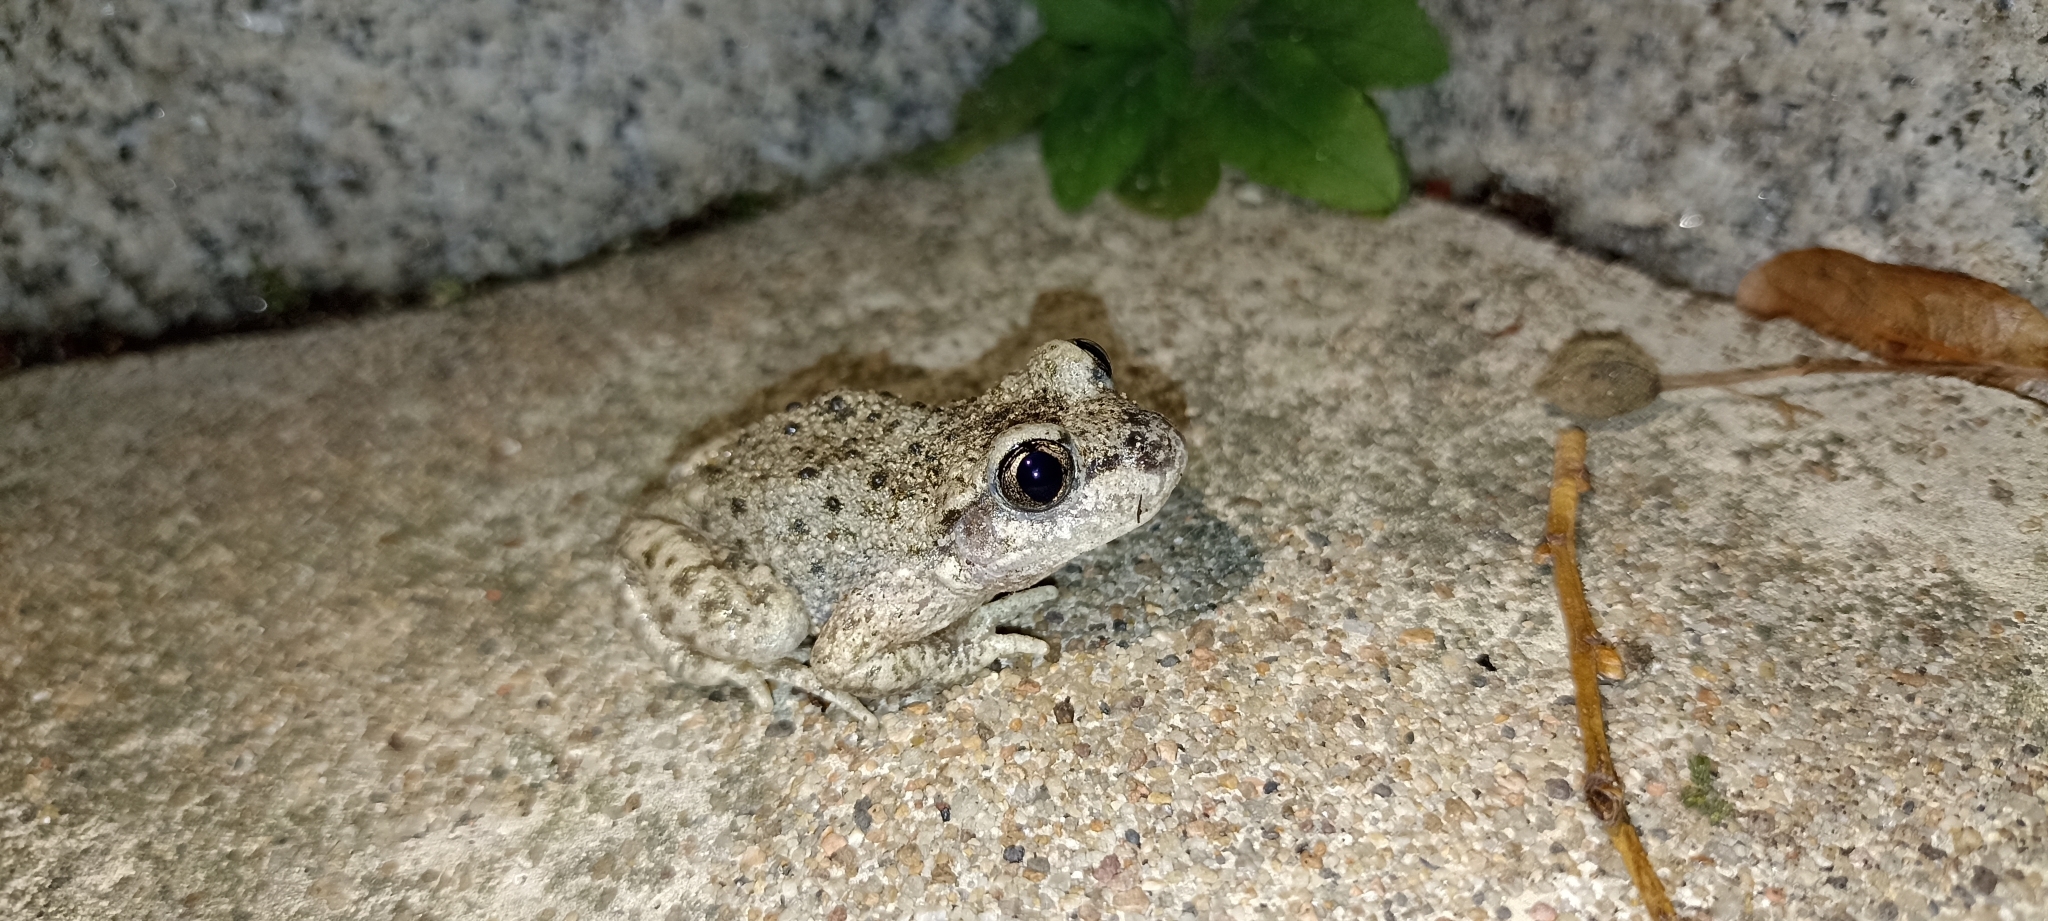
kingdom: Animalia
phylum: Chordata
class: Amphibia
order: Anura
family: Alytidae
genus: Alytes
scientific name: Alytes obstetricans
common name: Midwife toad
